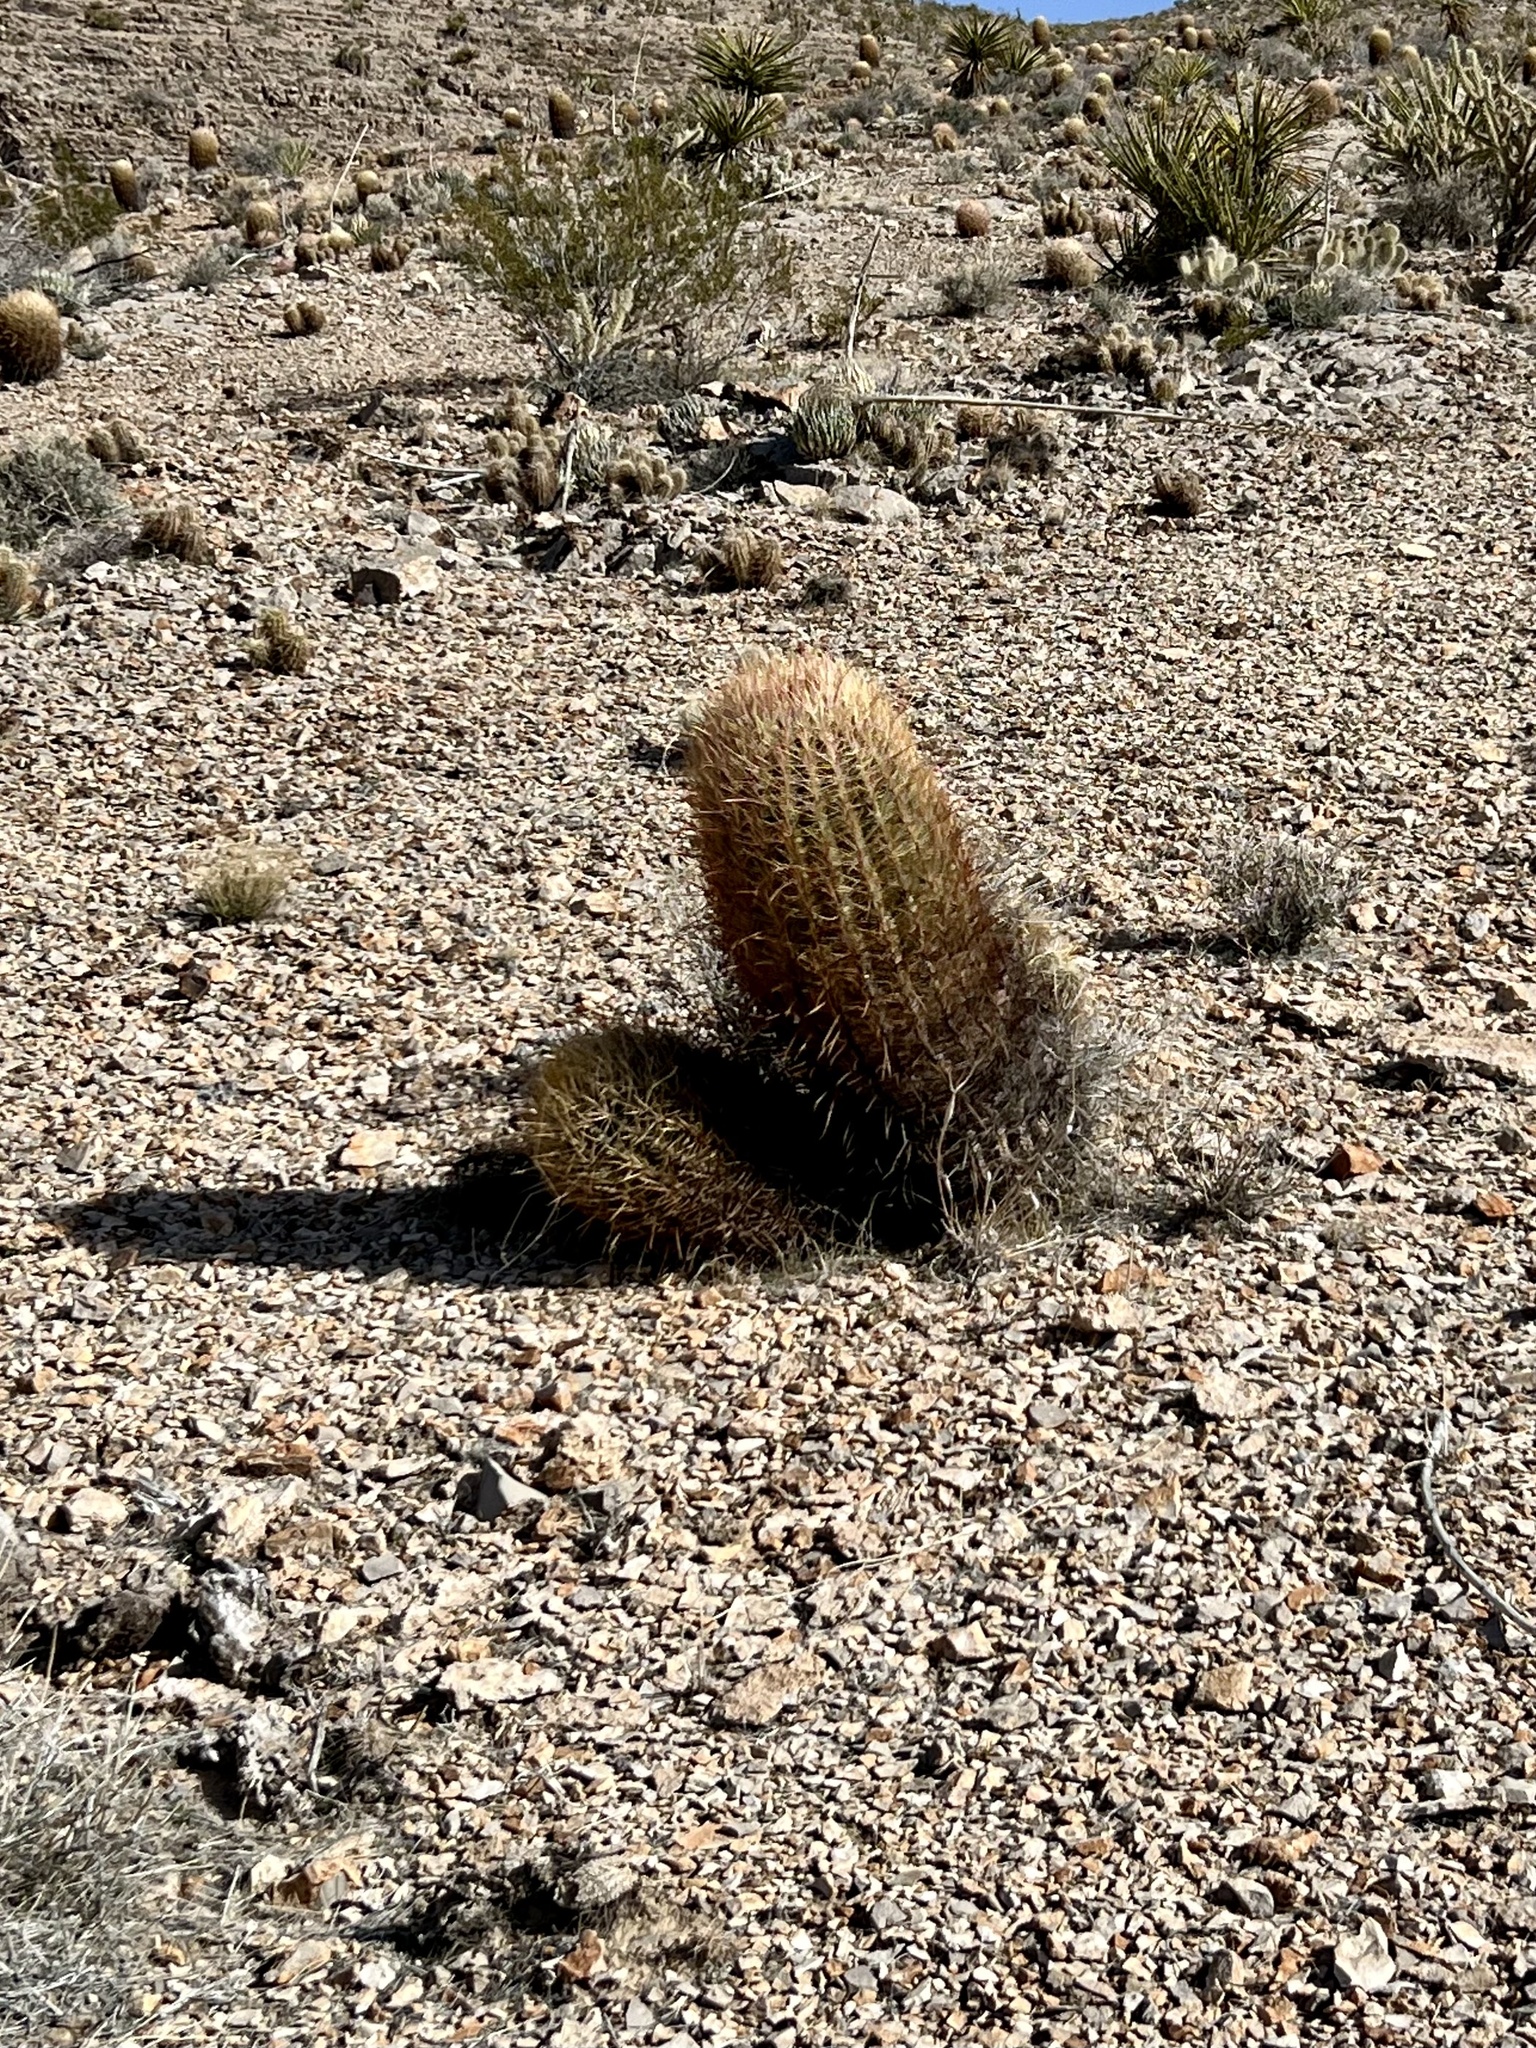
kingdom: Plantae
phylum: Tracheophyta
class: Magnoliopsida
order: Caryophyllales
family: Cactaceae
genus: Ferocactus
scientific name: Ferocactus cylindraceus
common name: California barrel cactus
